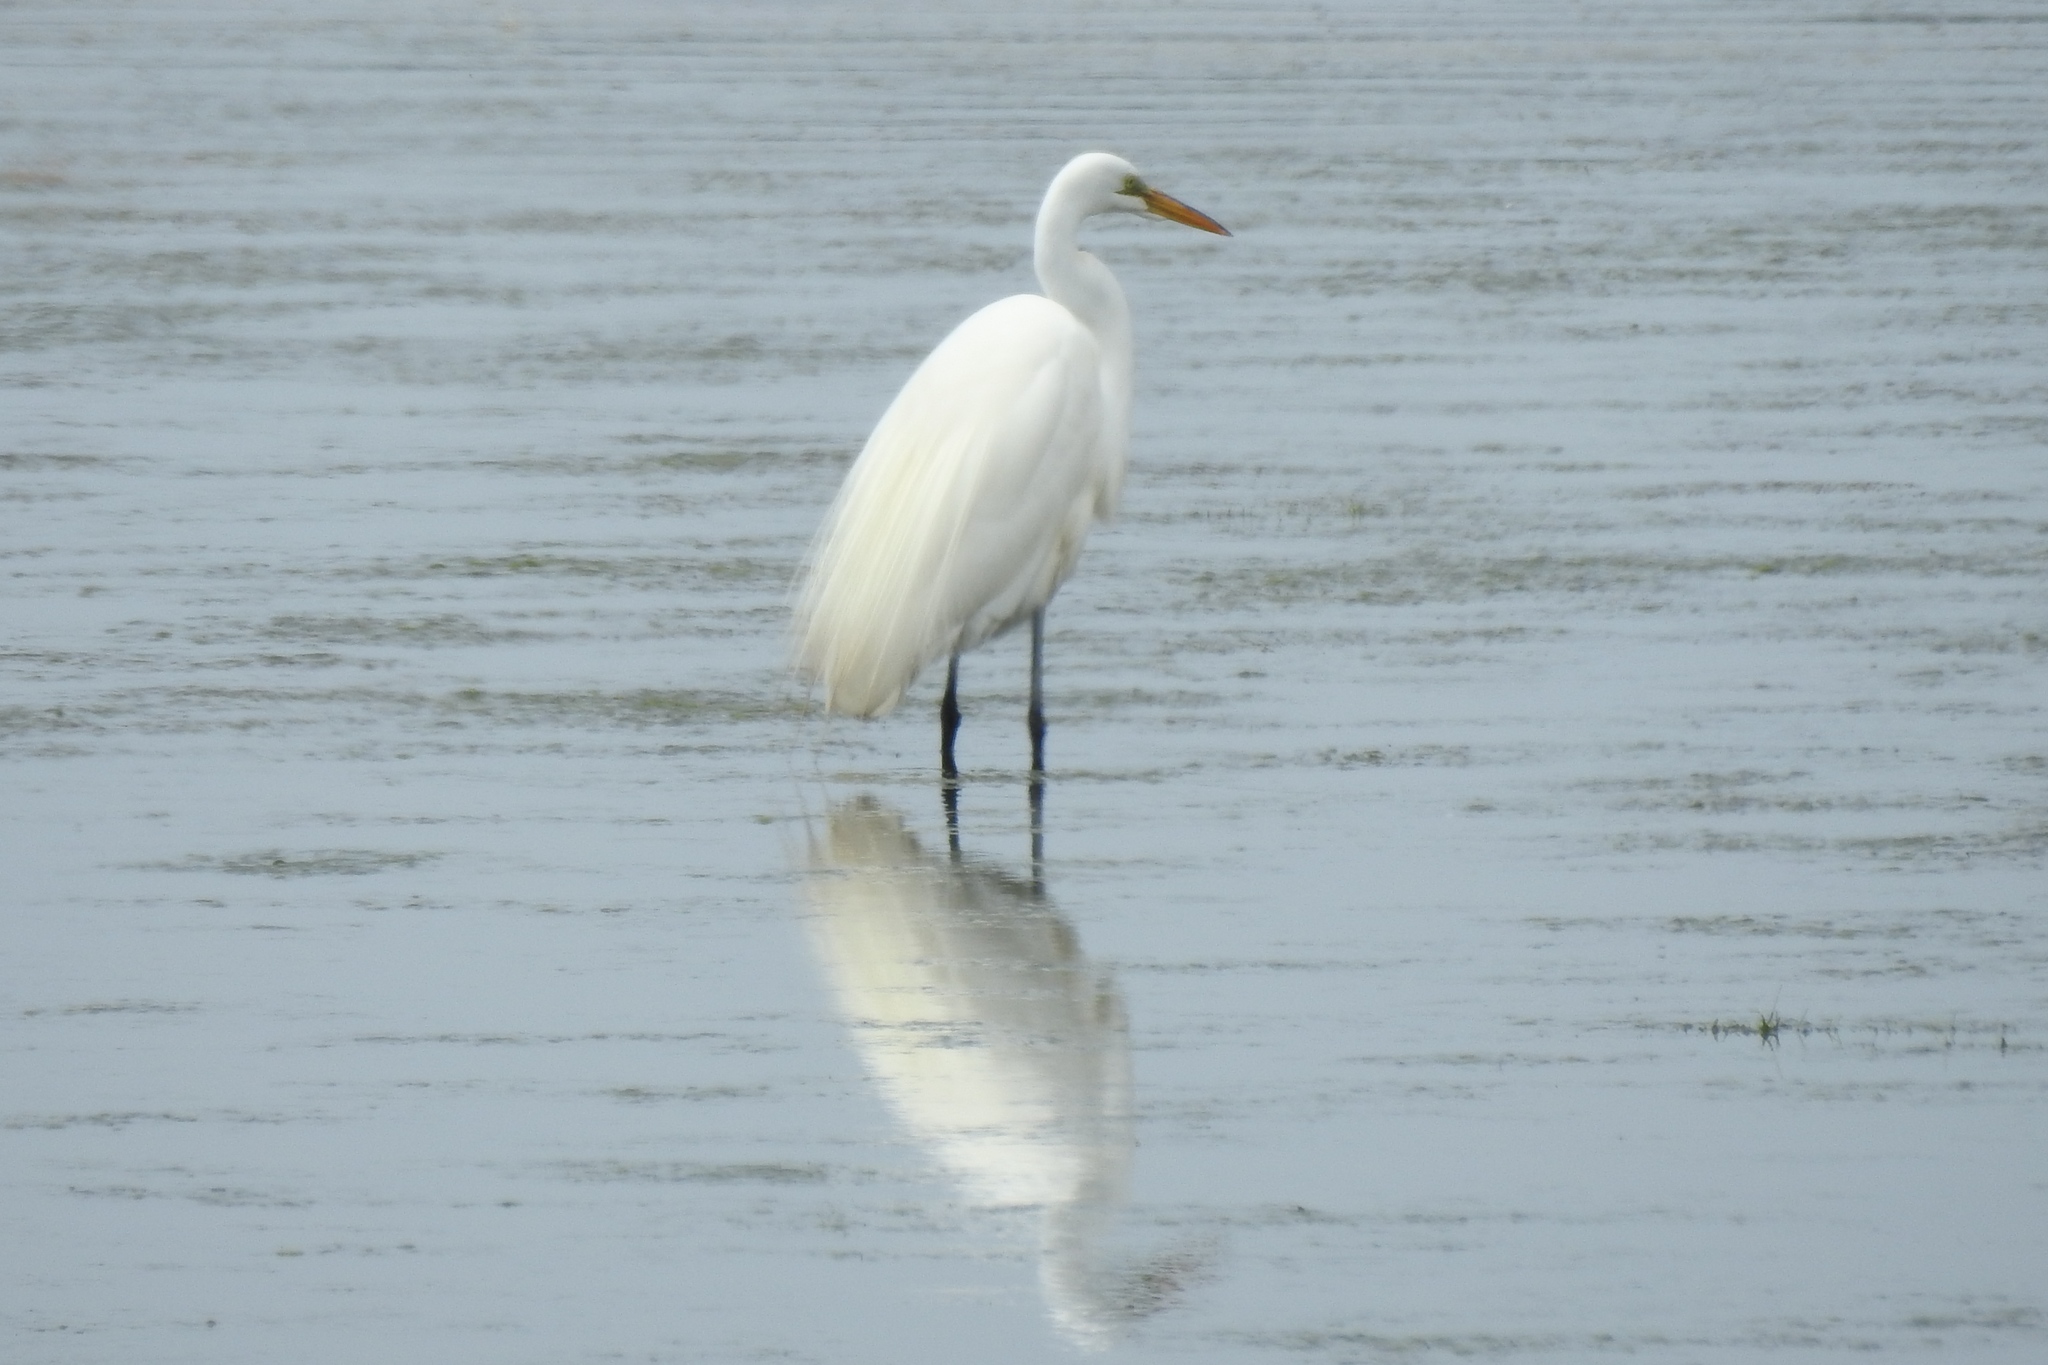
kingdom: Animalia
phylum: Chordata
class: Aves
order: Pelecaniformes
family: Ardeidae
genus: Ardea
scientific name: Ardea alba
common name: Great egret
